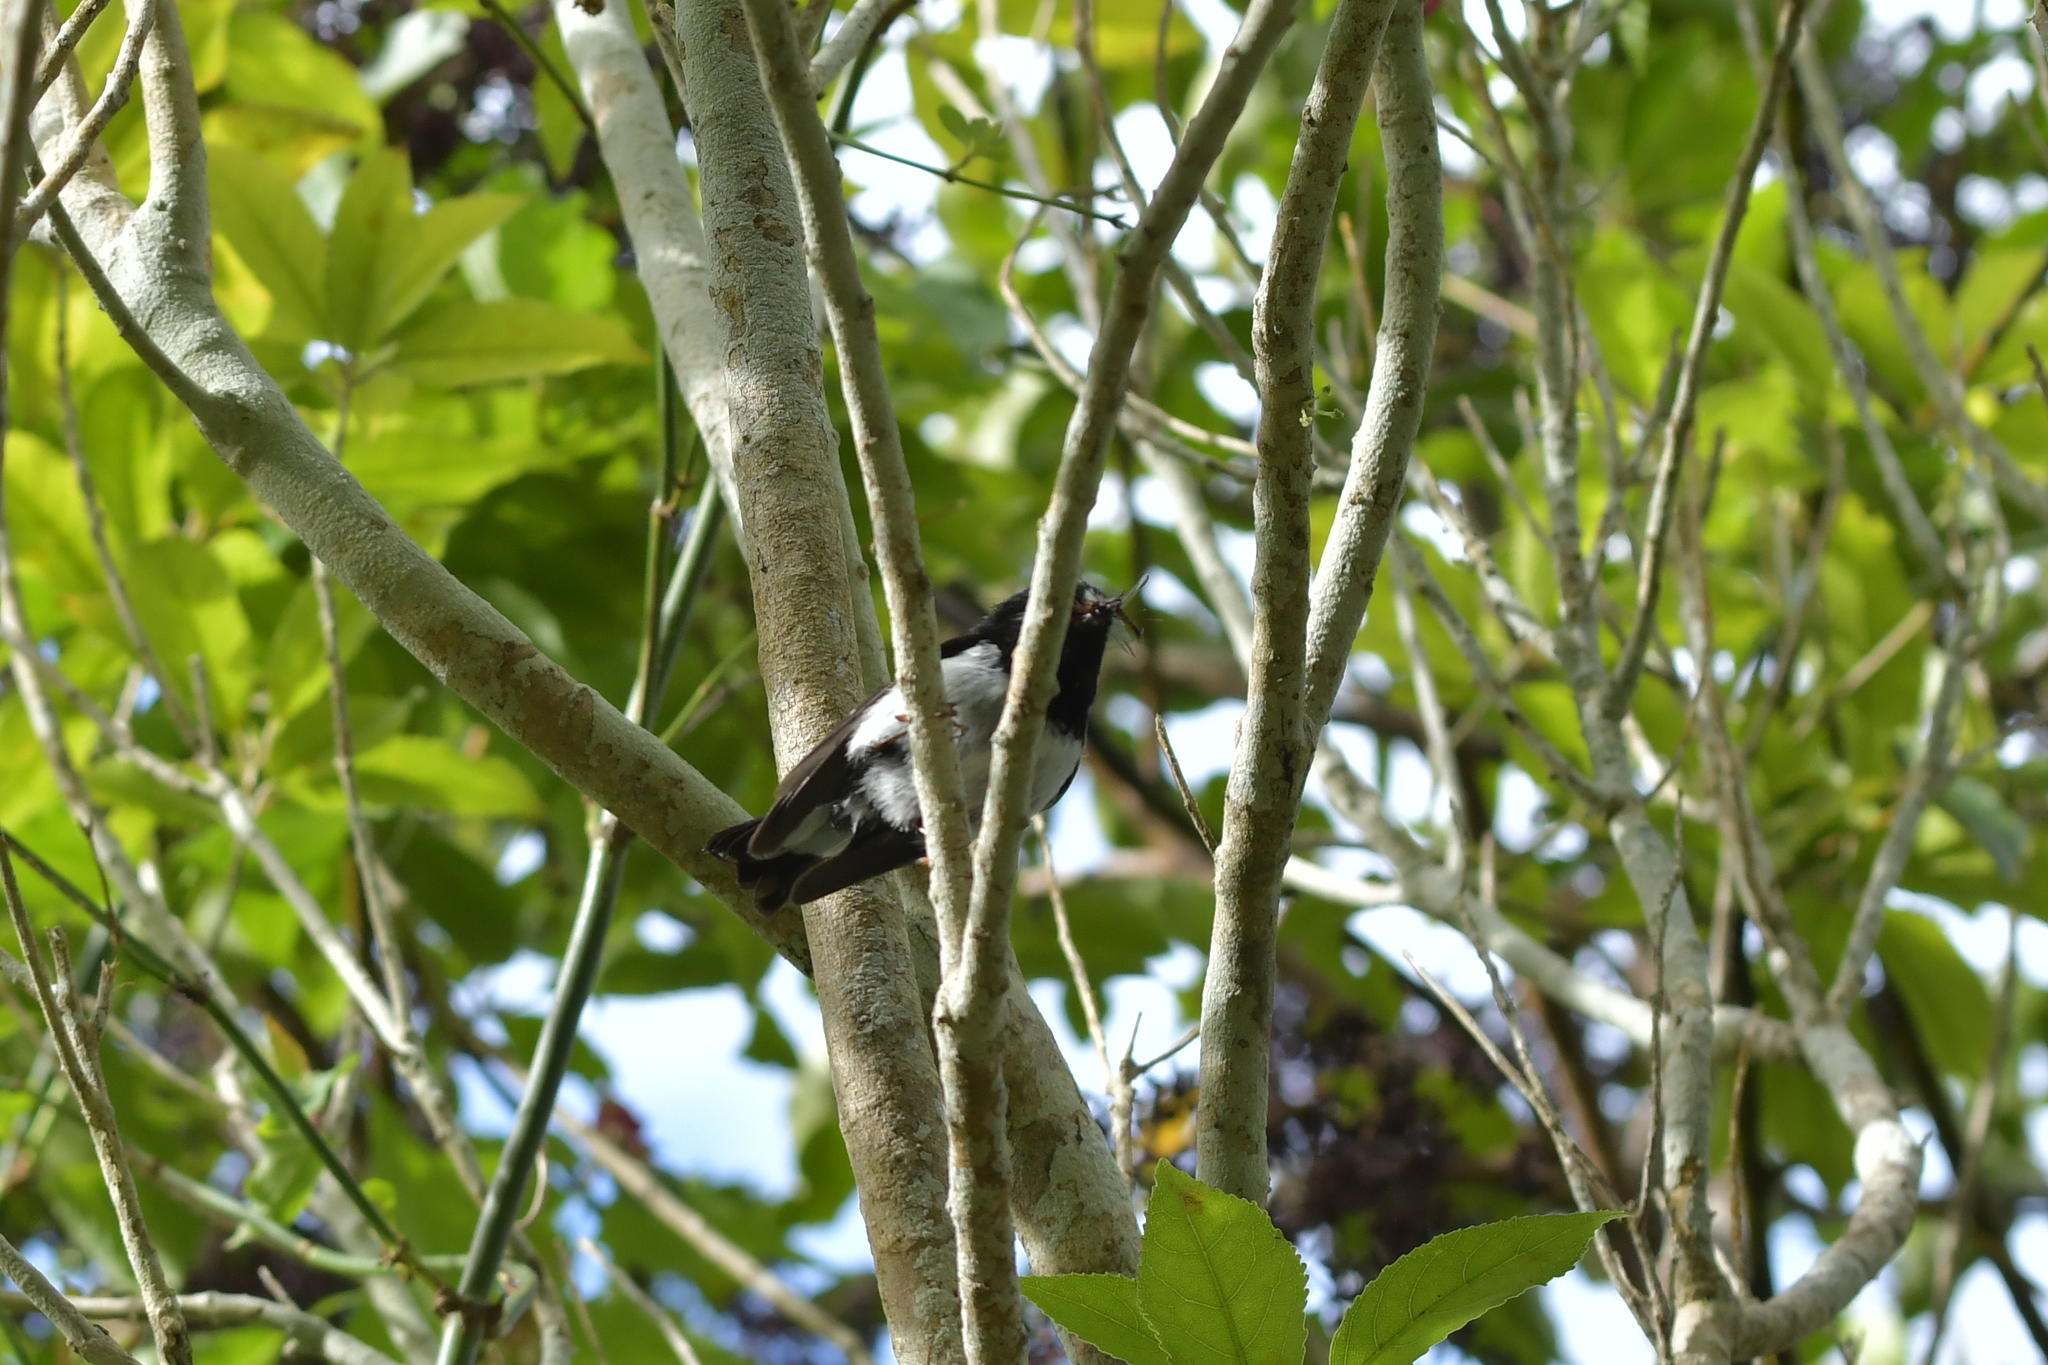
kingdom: Animalia
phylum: Chordata
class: Aves
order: Passeriformes
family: Petroicidae
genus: Petroica
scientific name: Petroica macrocephala
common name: Tomtit
